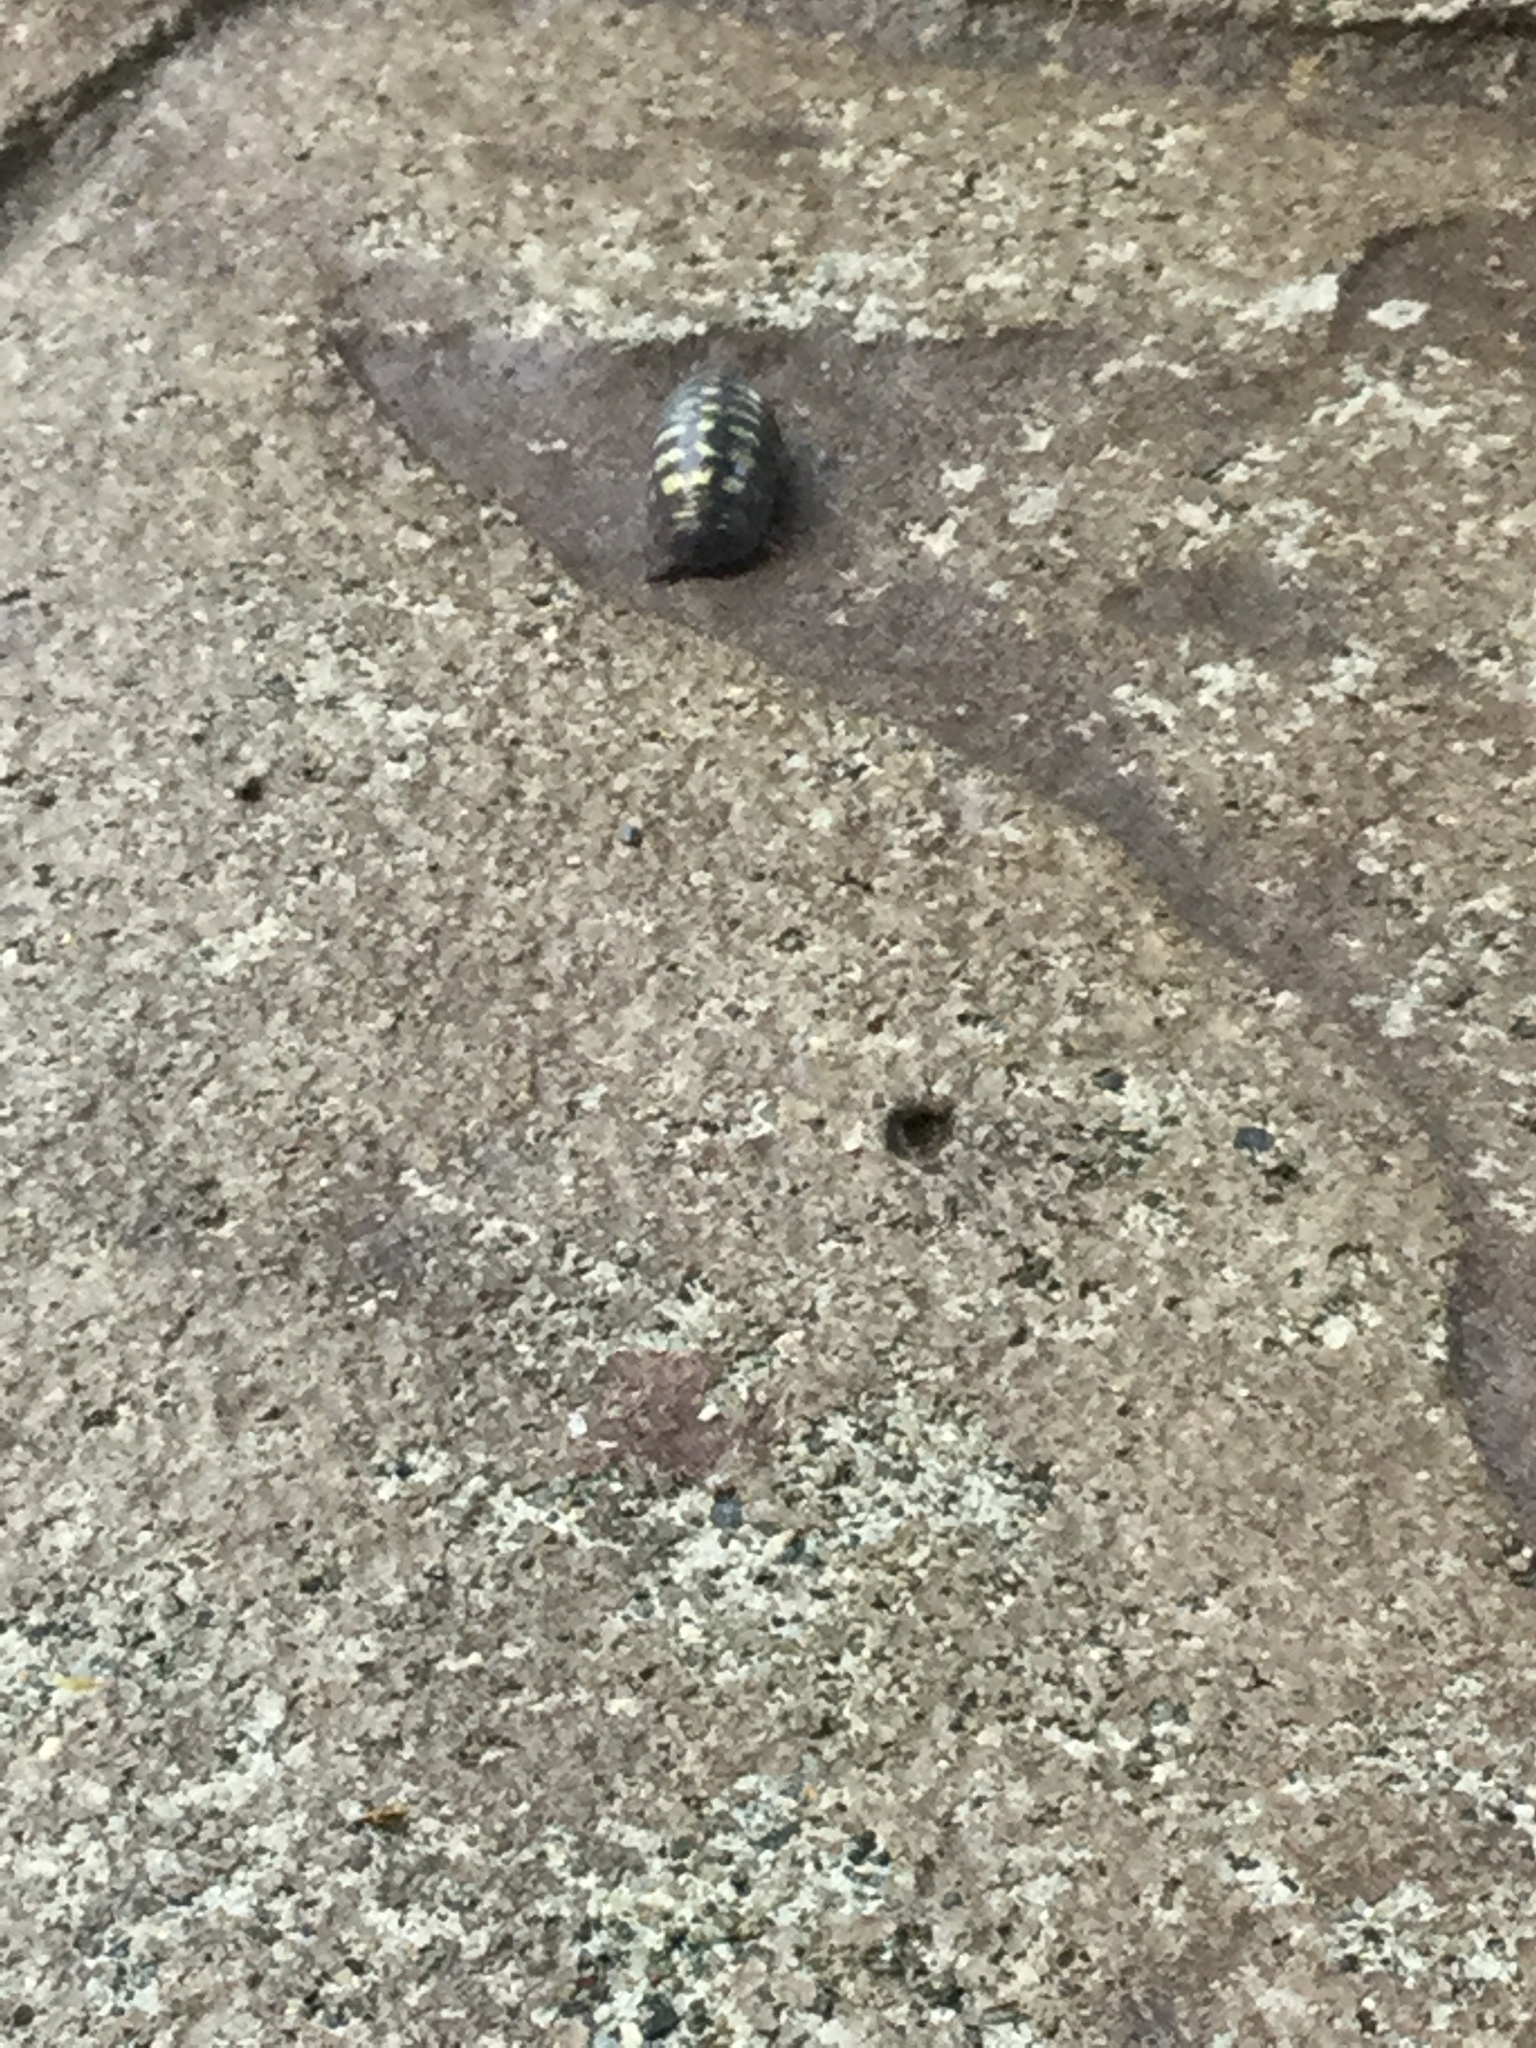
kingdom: Animalia
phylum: Arthropoda
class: Malacostraca
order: Isopoda
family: Armadillidiidae
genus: Armadillidium
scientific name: Armadillidium vulgare
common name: Common pill woodlouse
